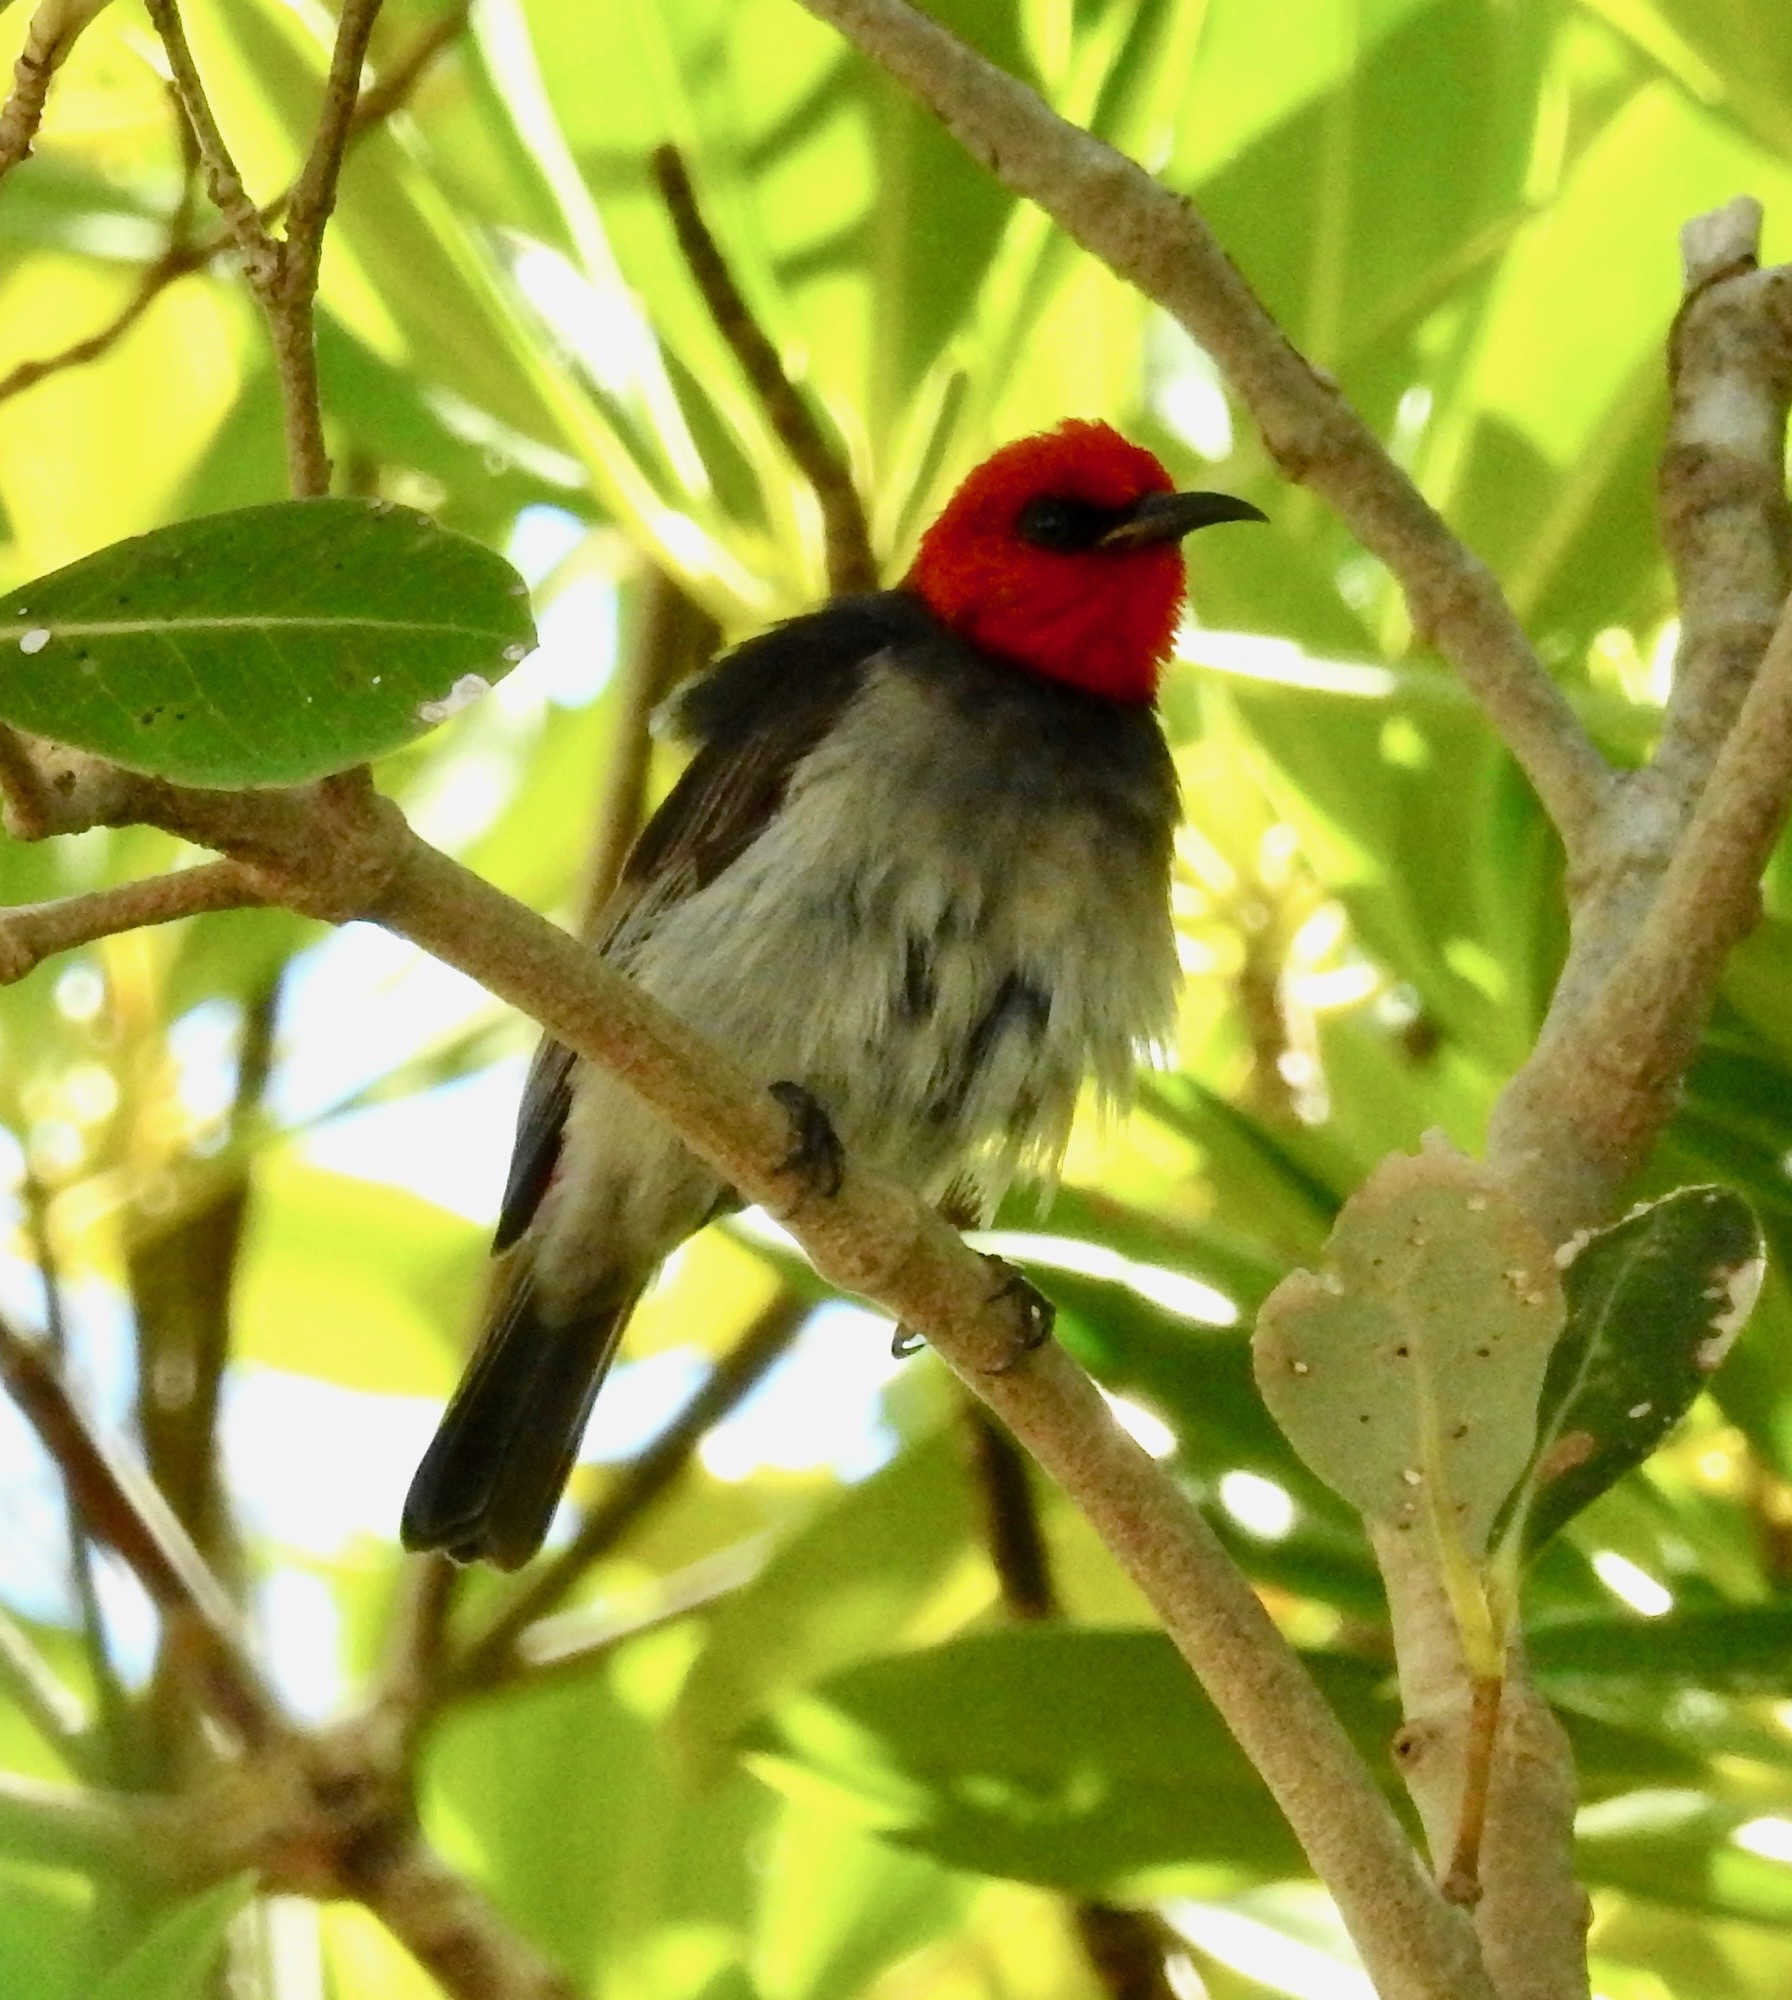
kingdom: Animalia
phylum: Chordata
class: Aves
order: Passeriformes
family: Meliphagidae
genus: Myzomela
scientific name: Myzomela erythrocephala
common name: Red-headed myzomela
